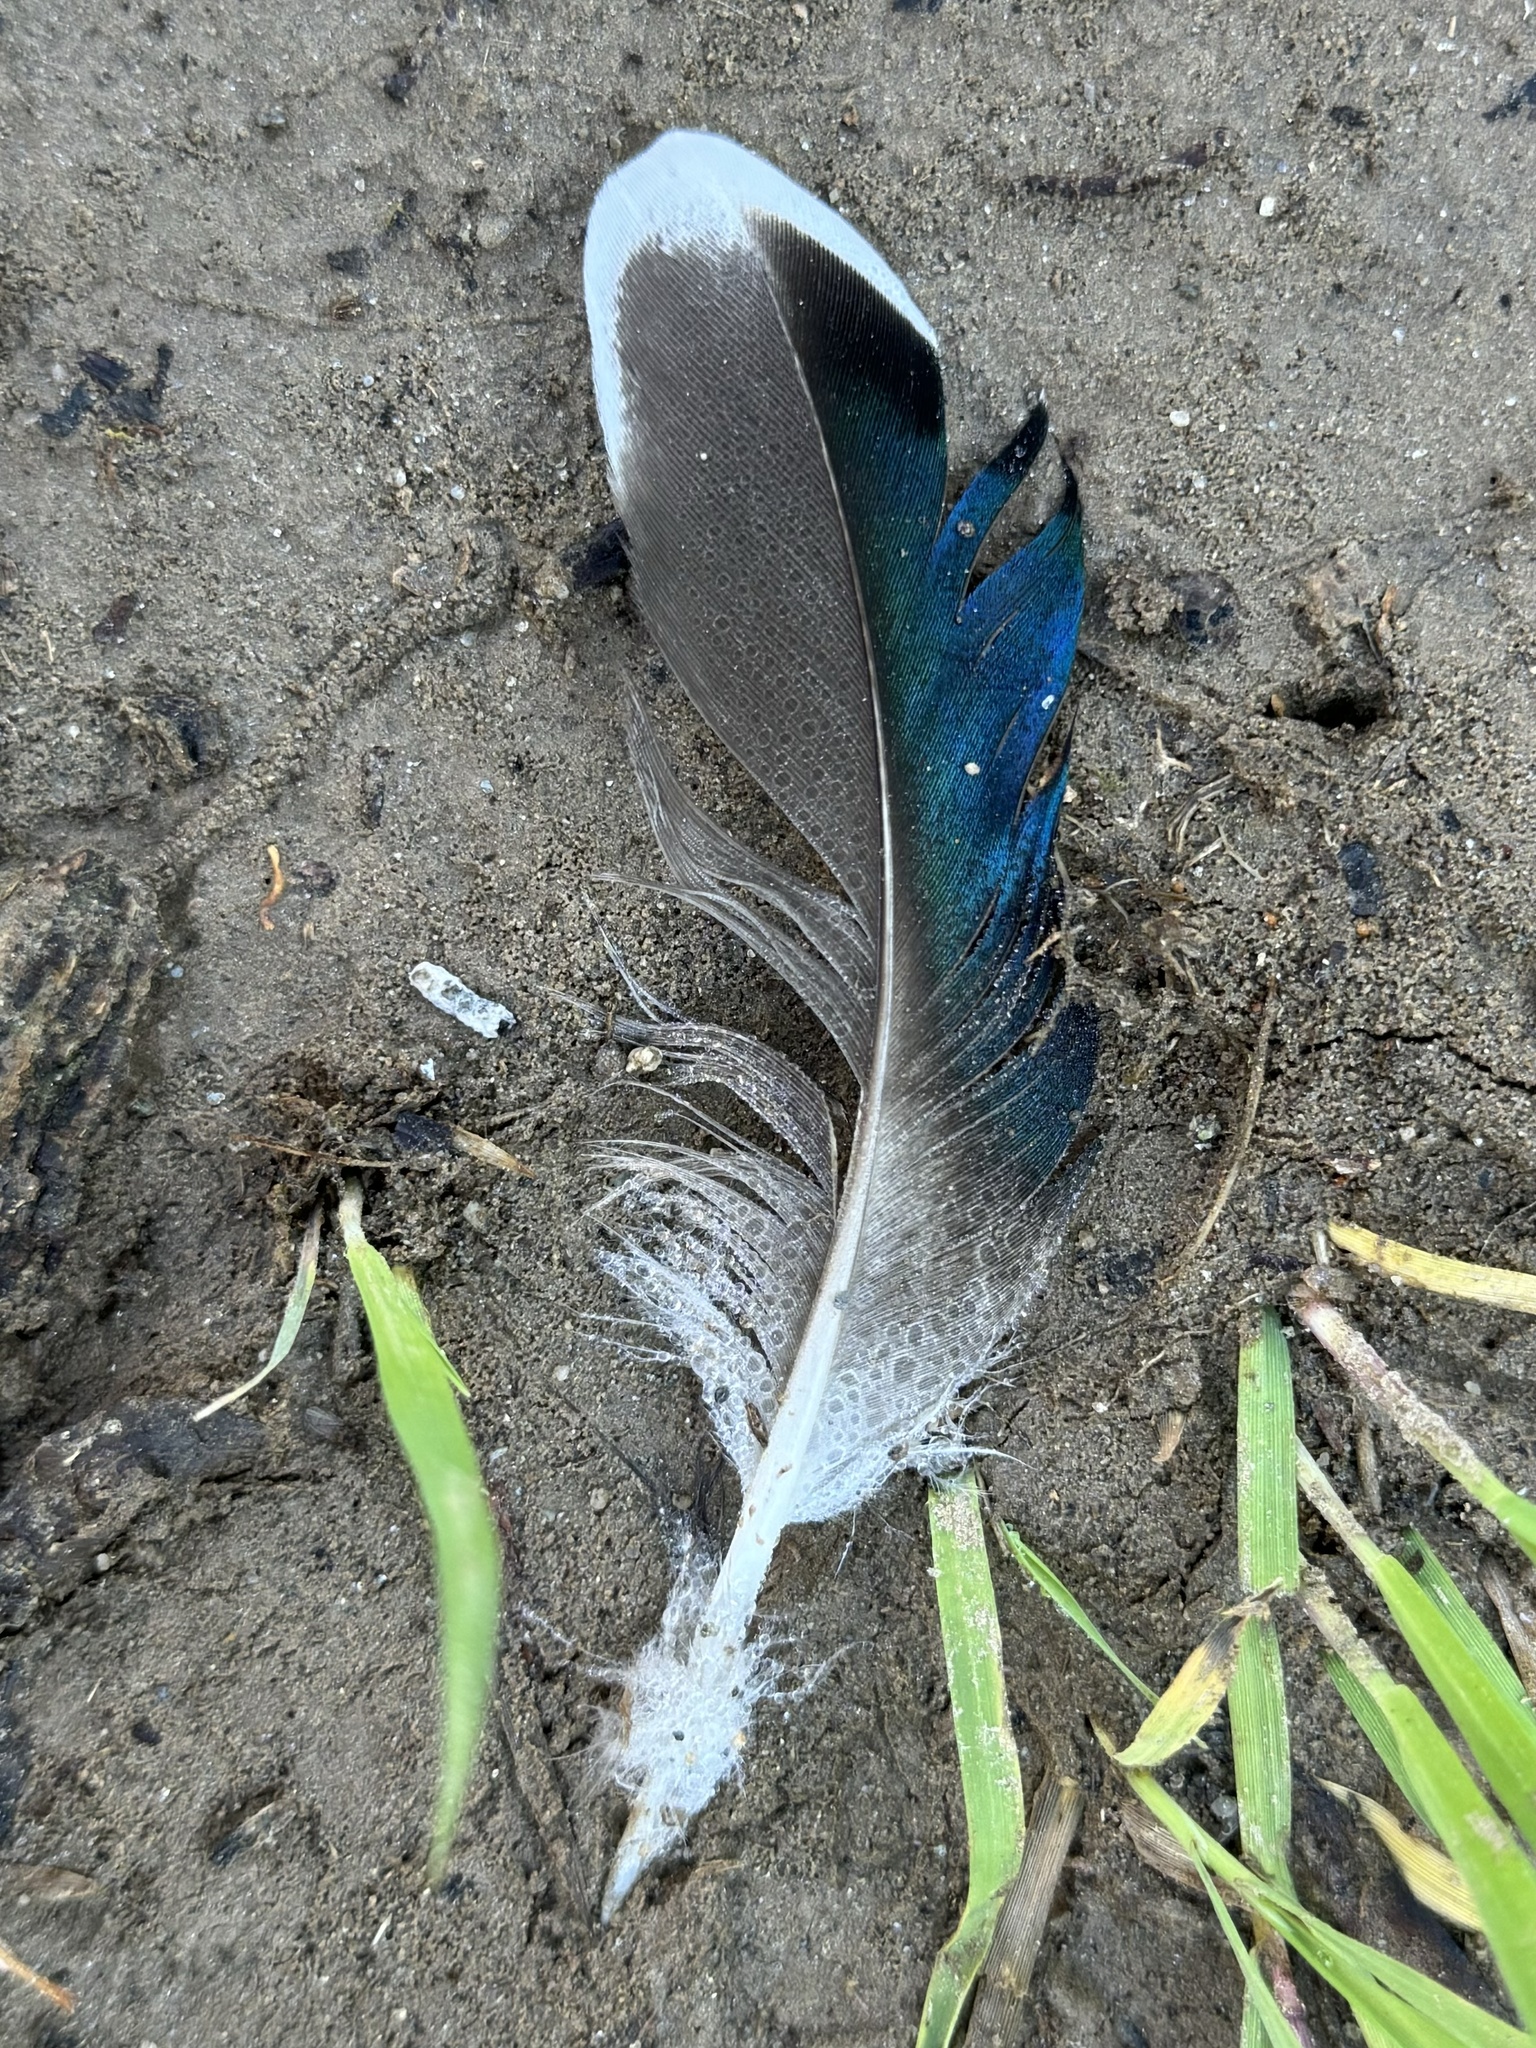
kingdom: Animalia
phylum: Chordata
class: Aves
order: Anseriformes
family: Anatidae
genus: Anas
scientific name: Anas platyrhynchos
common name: Mallard
